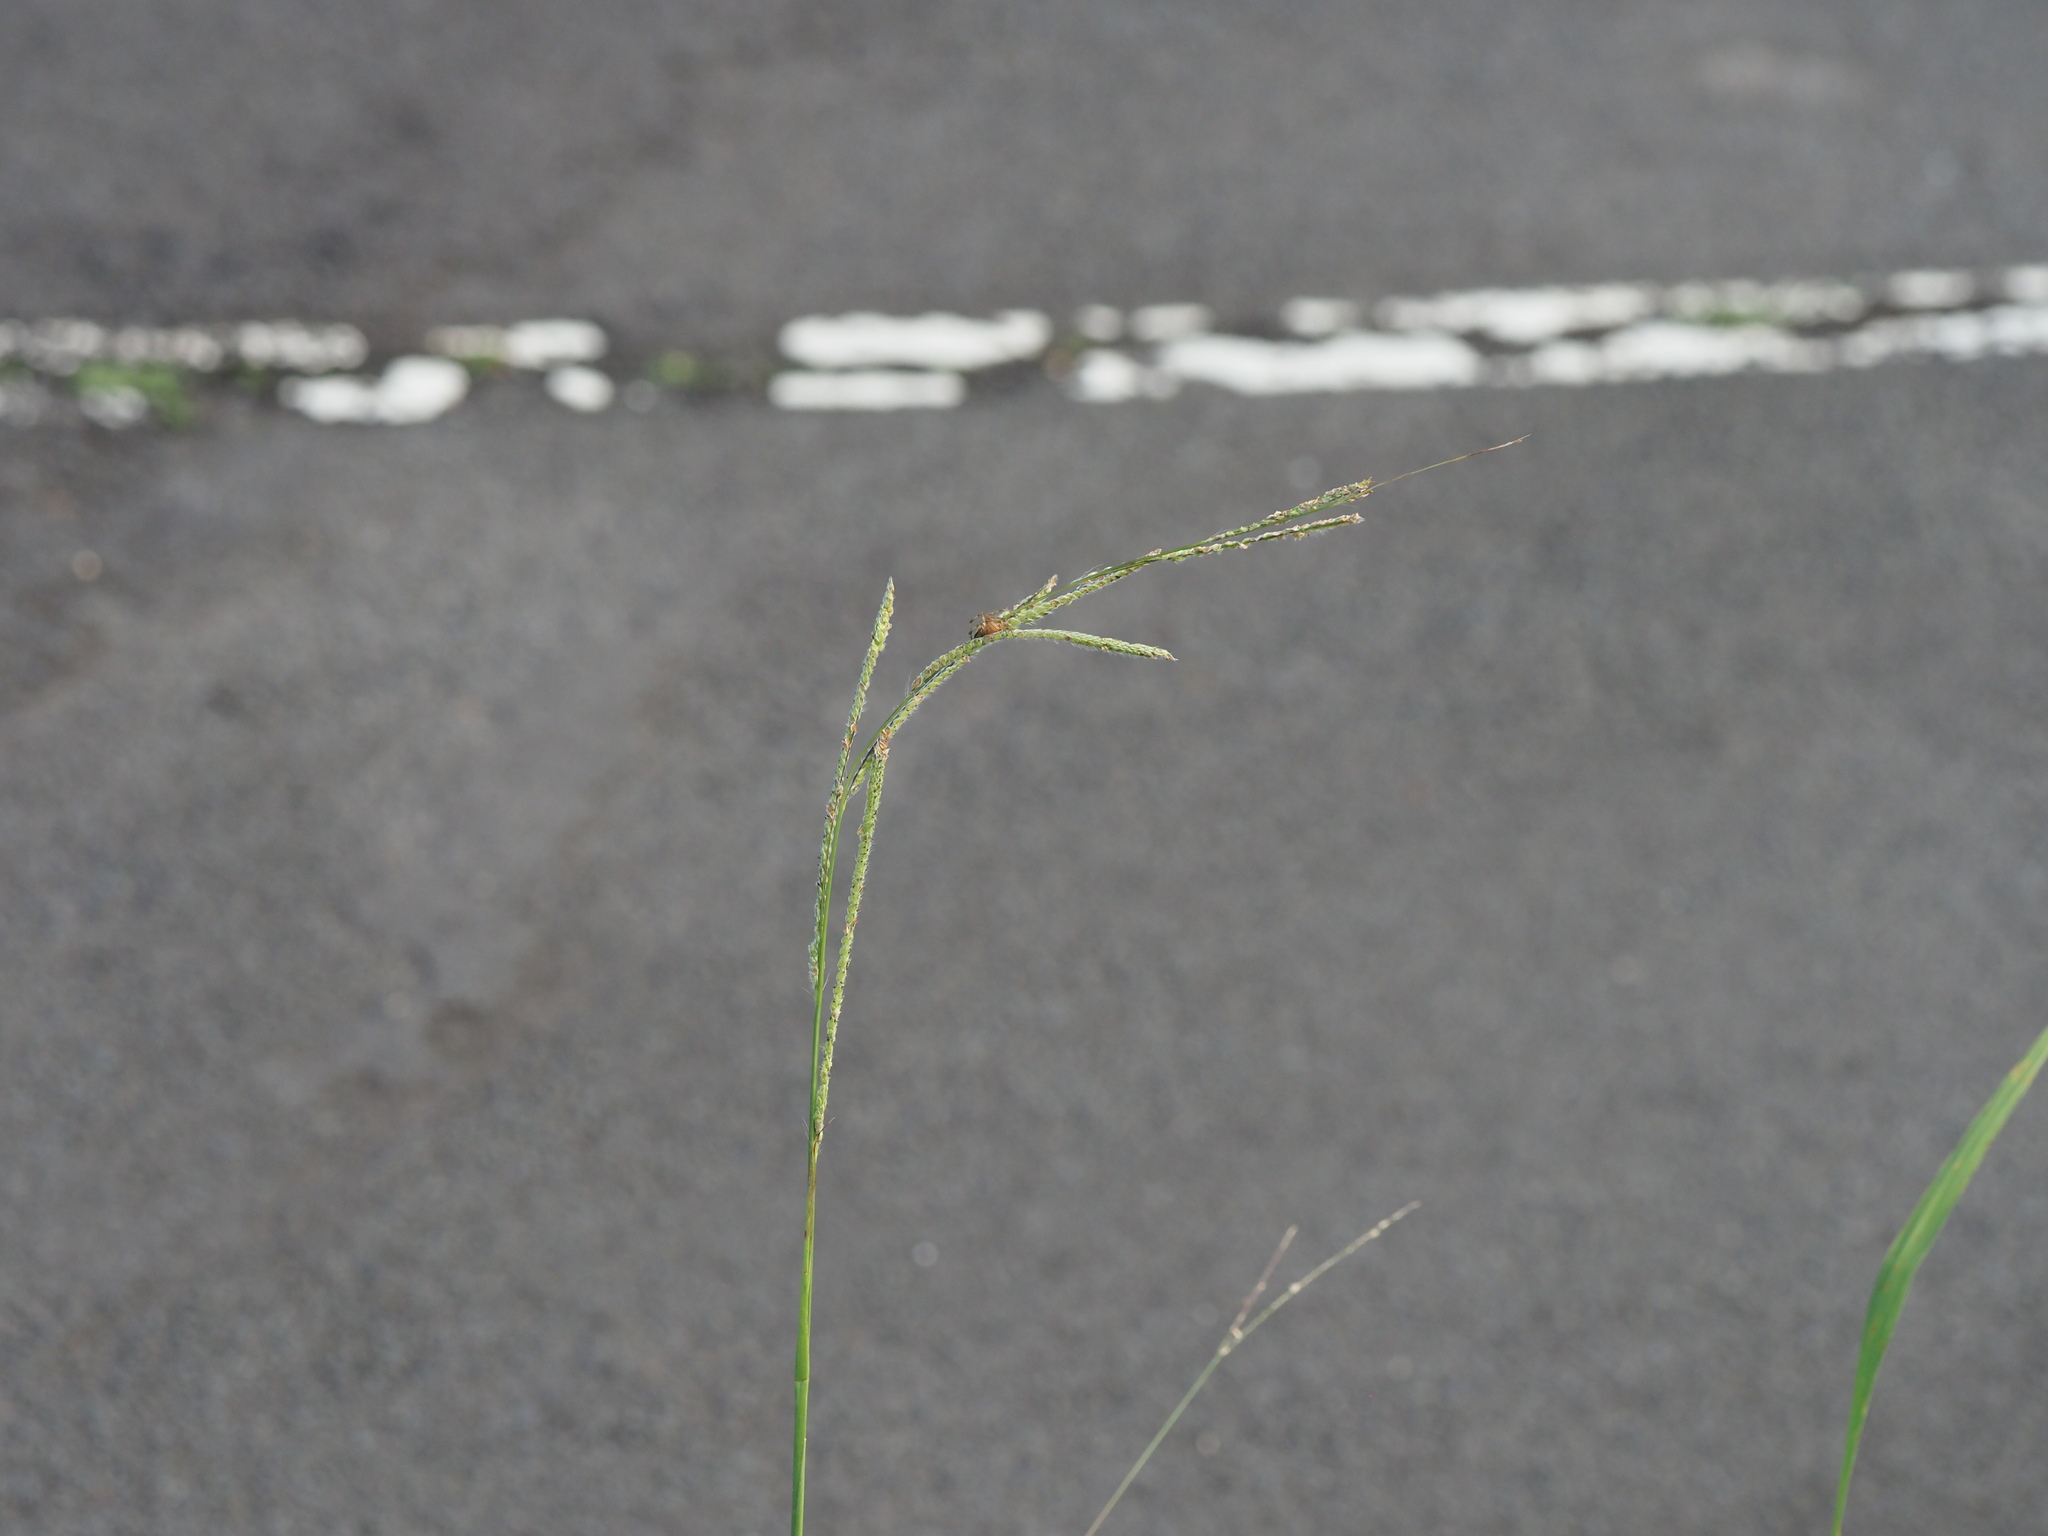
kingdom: Plantae
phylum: Tracheophyta
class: Liliopsida
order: Poales
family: Poaceae
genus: Paspalum
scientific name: Paspalum urvillei
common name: Vasey's grass
